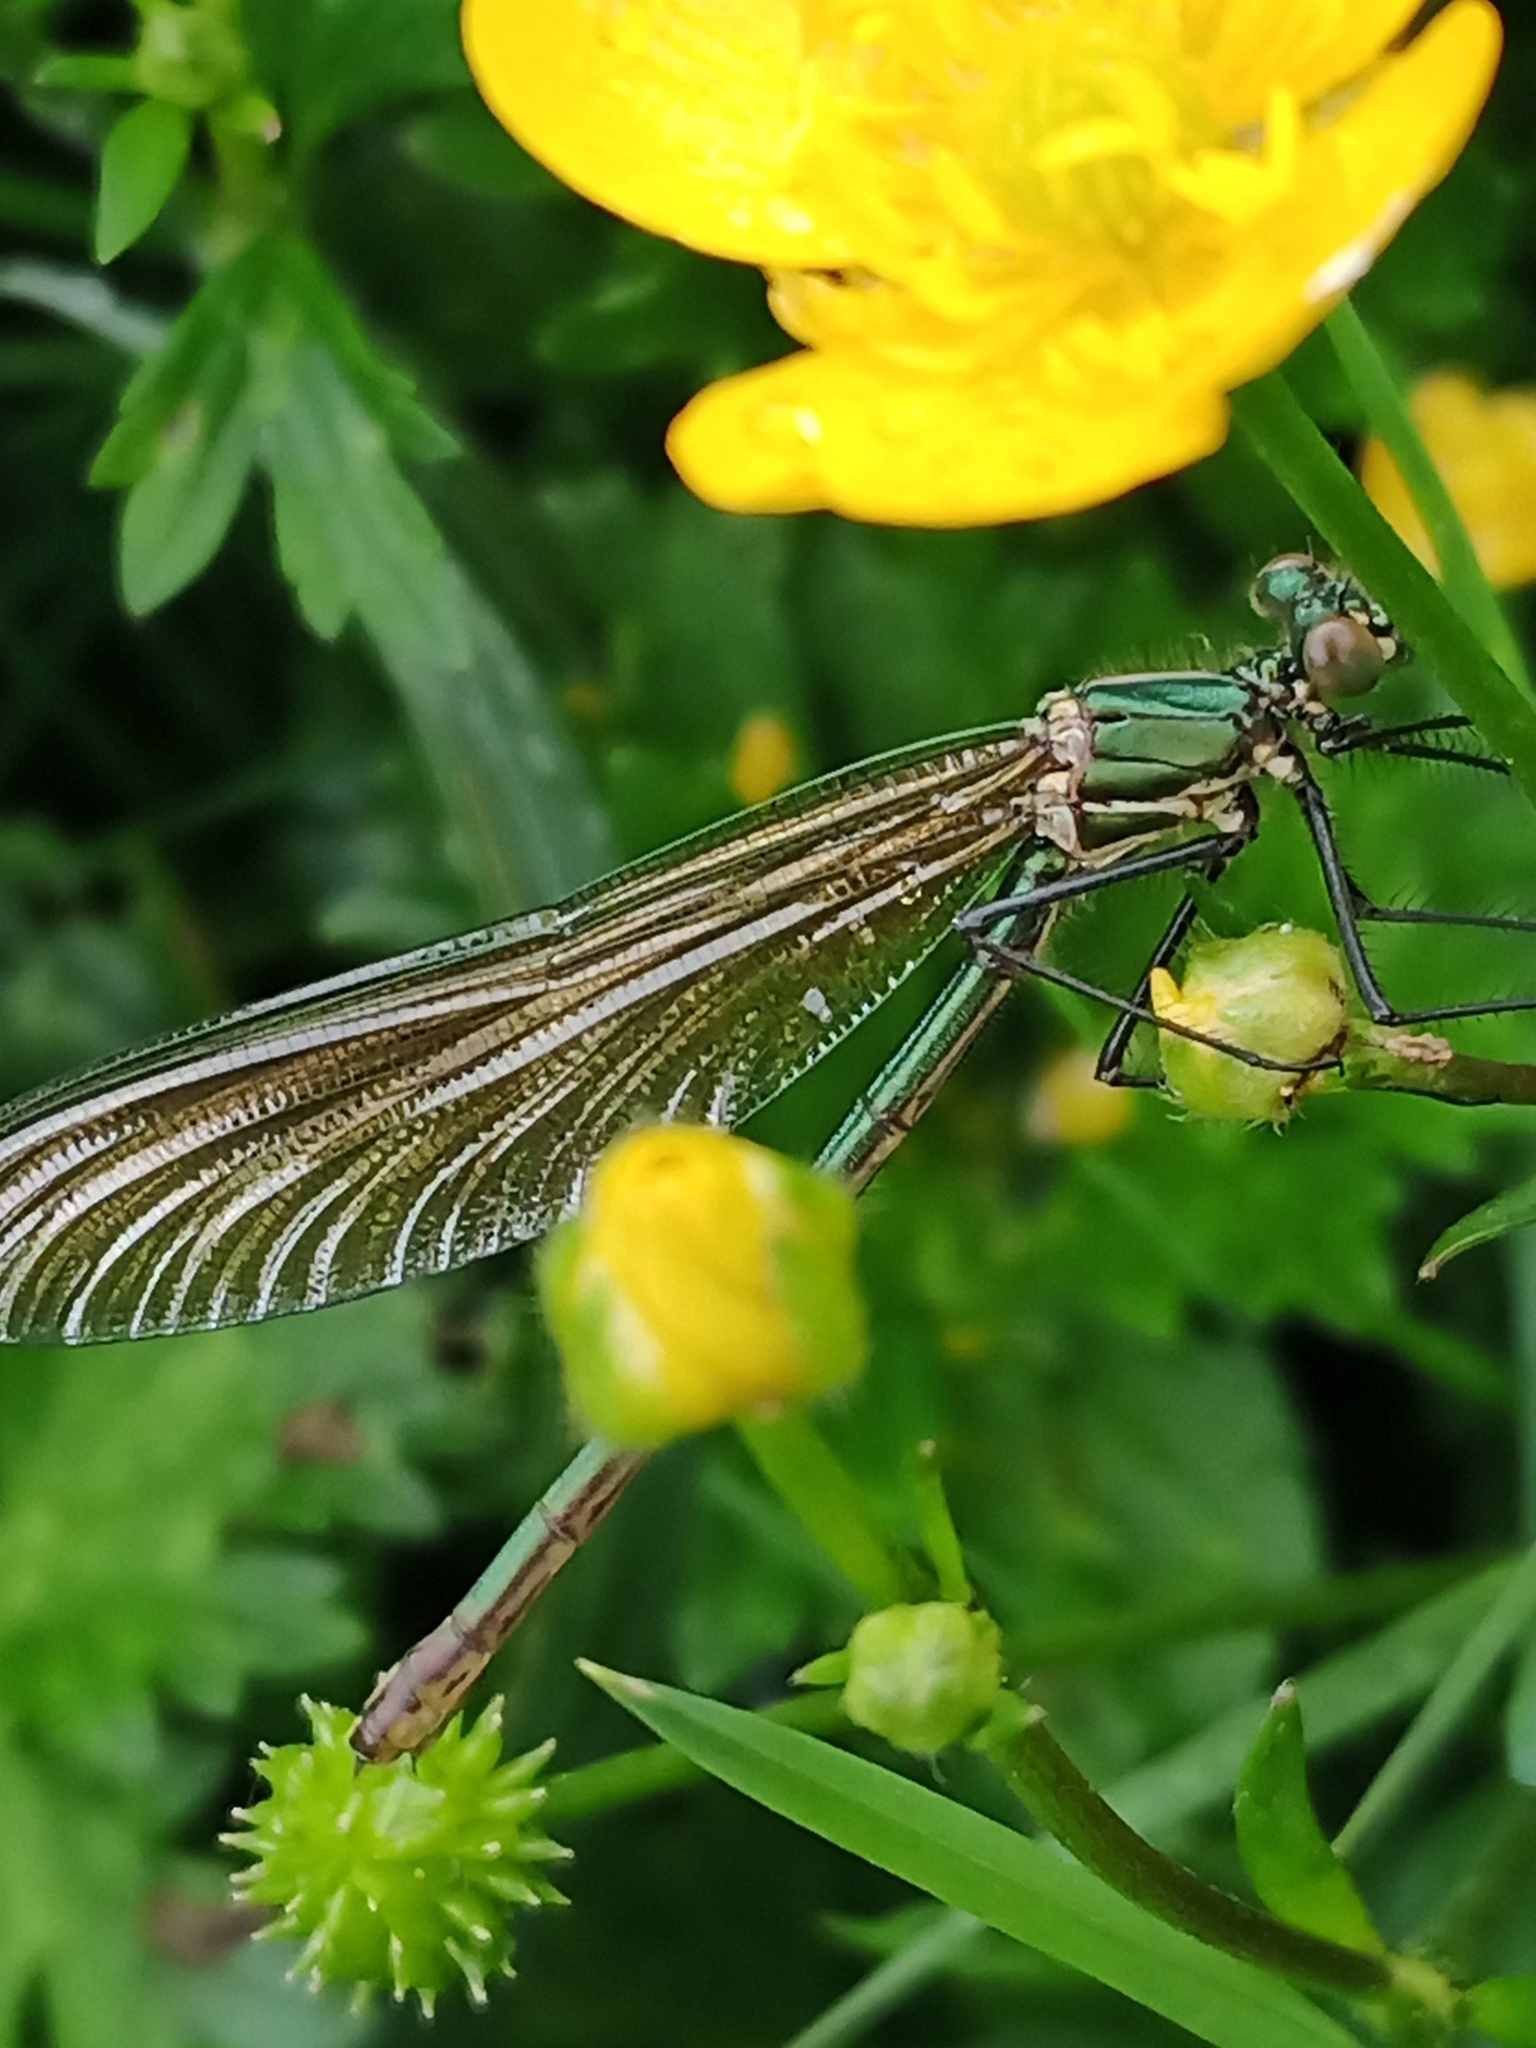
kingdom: Animalia
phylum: Arthropoda
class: Insecta
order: Odonata
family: Calopterygidae
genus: Calopteryx
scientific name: Calopteryx xanthostoma
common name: Western demoiselle
